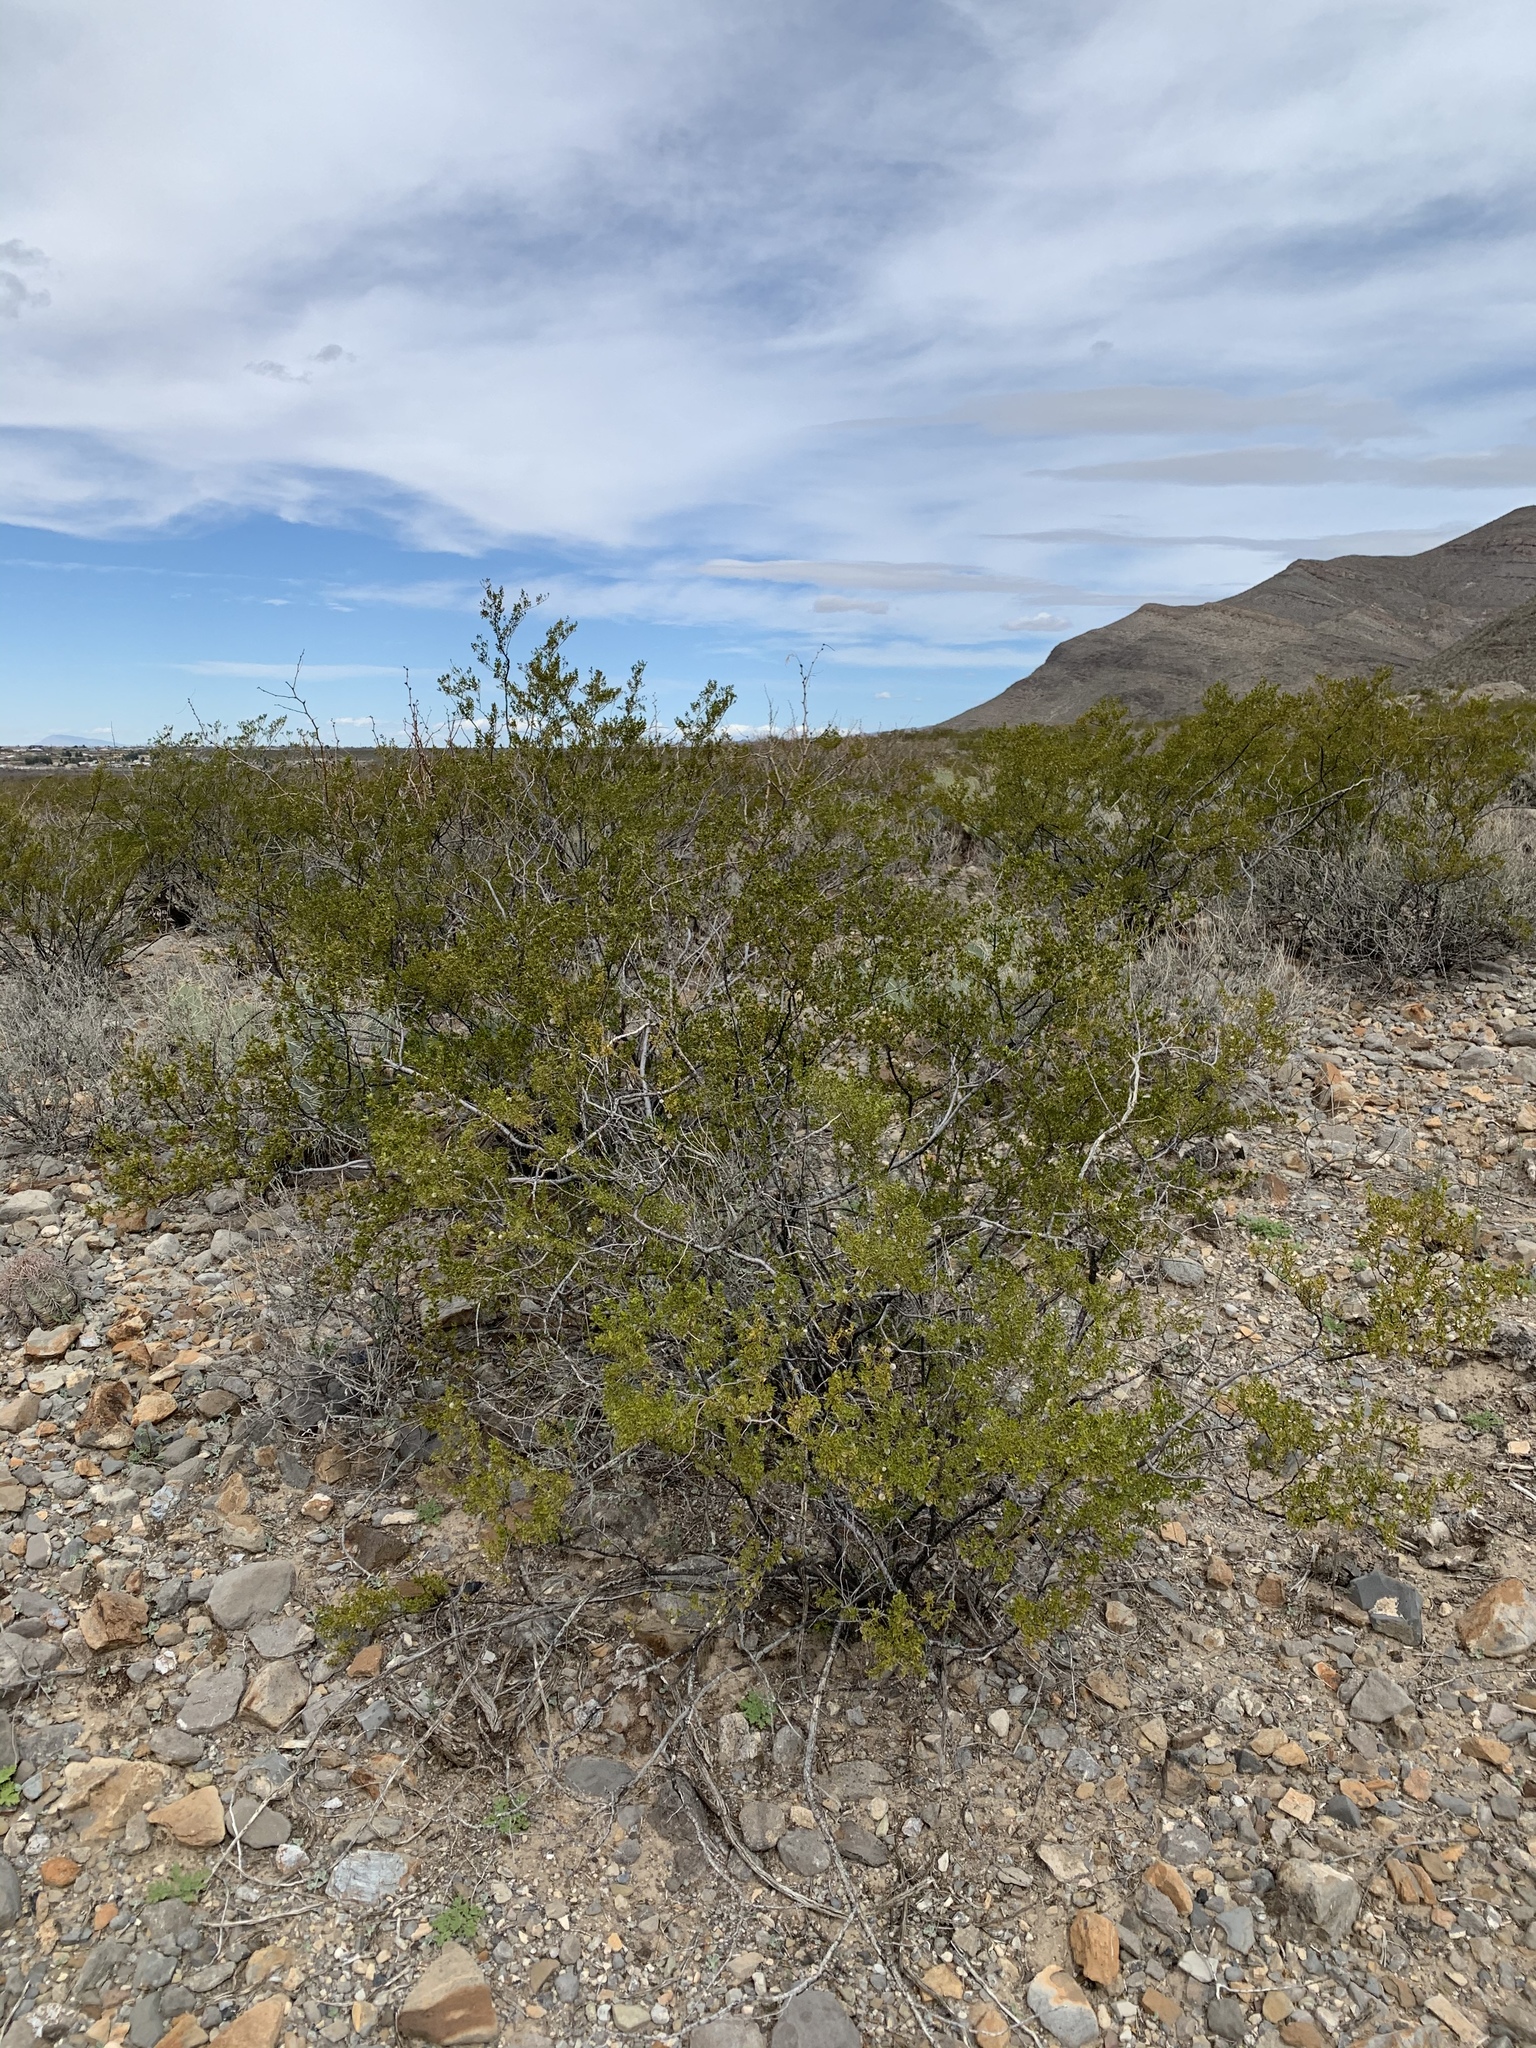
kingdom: Plantae
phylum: Tracheophyta
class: Magnoliopsida
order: Zygophyllales
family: Zygophyllaceae
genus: Larrea
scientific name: Larrea tridentata
